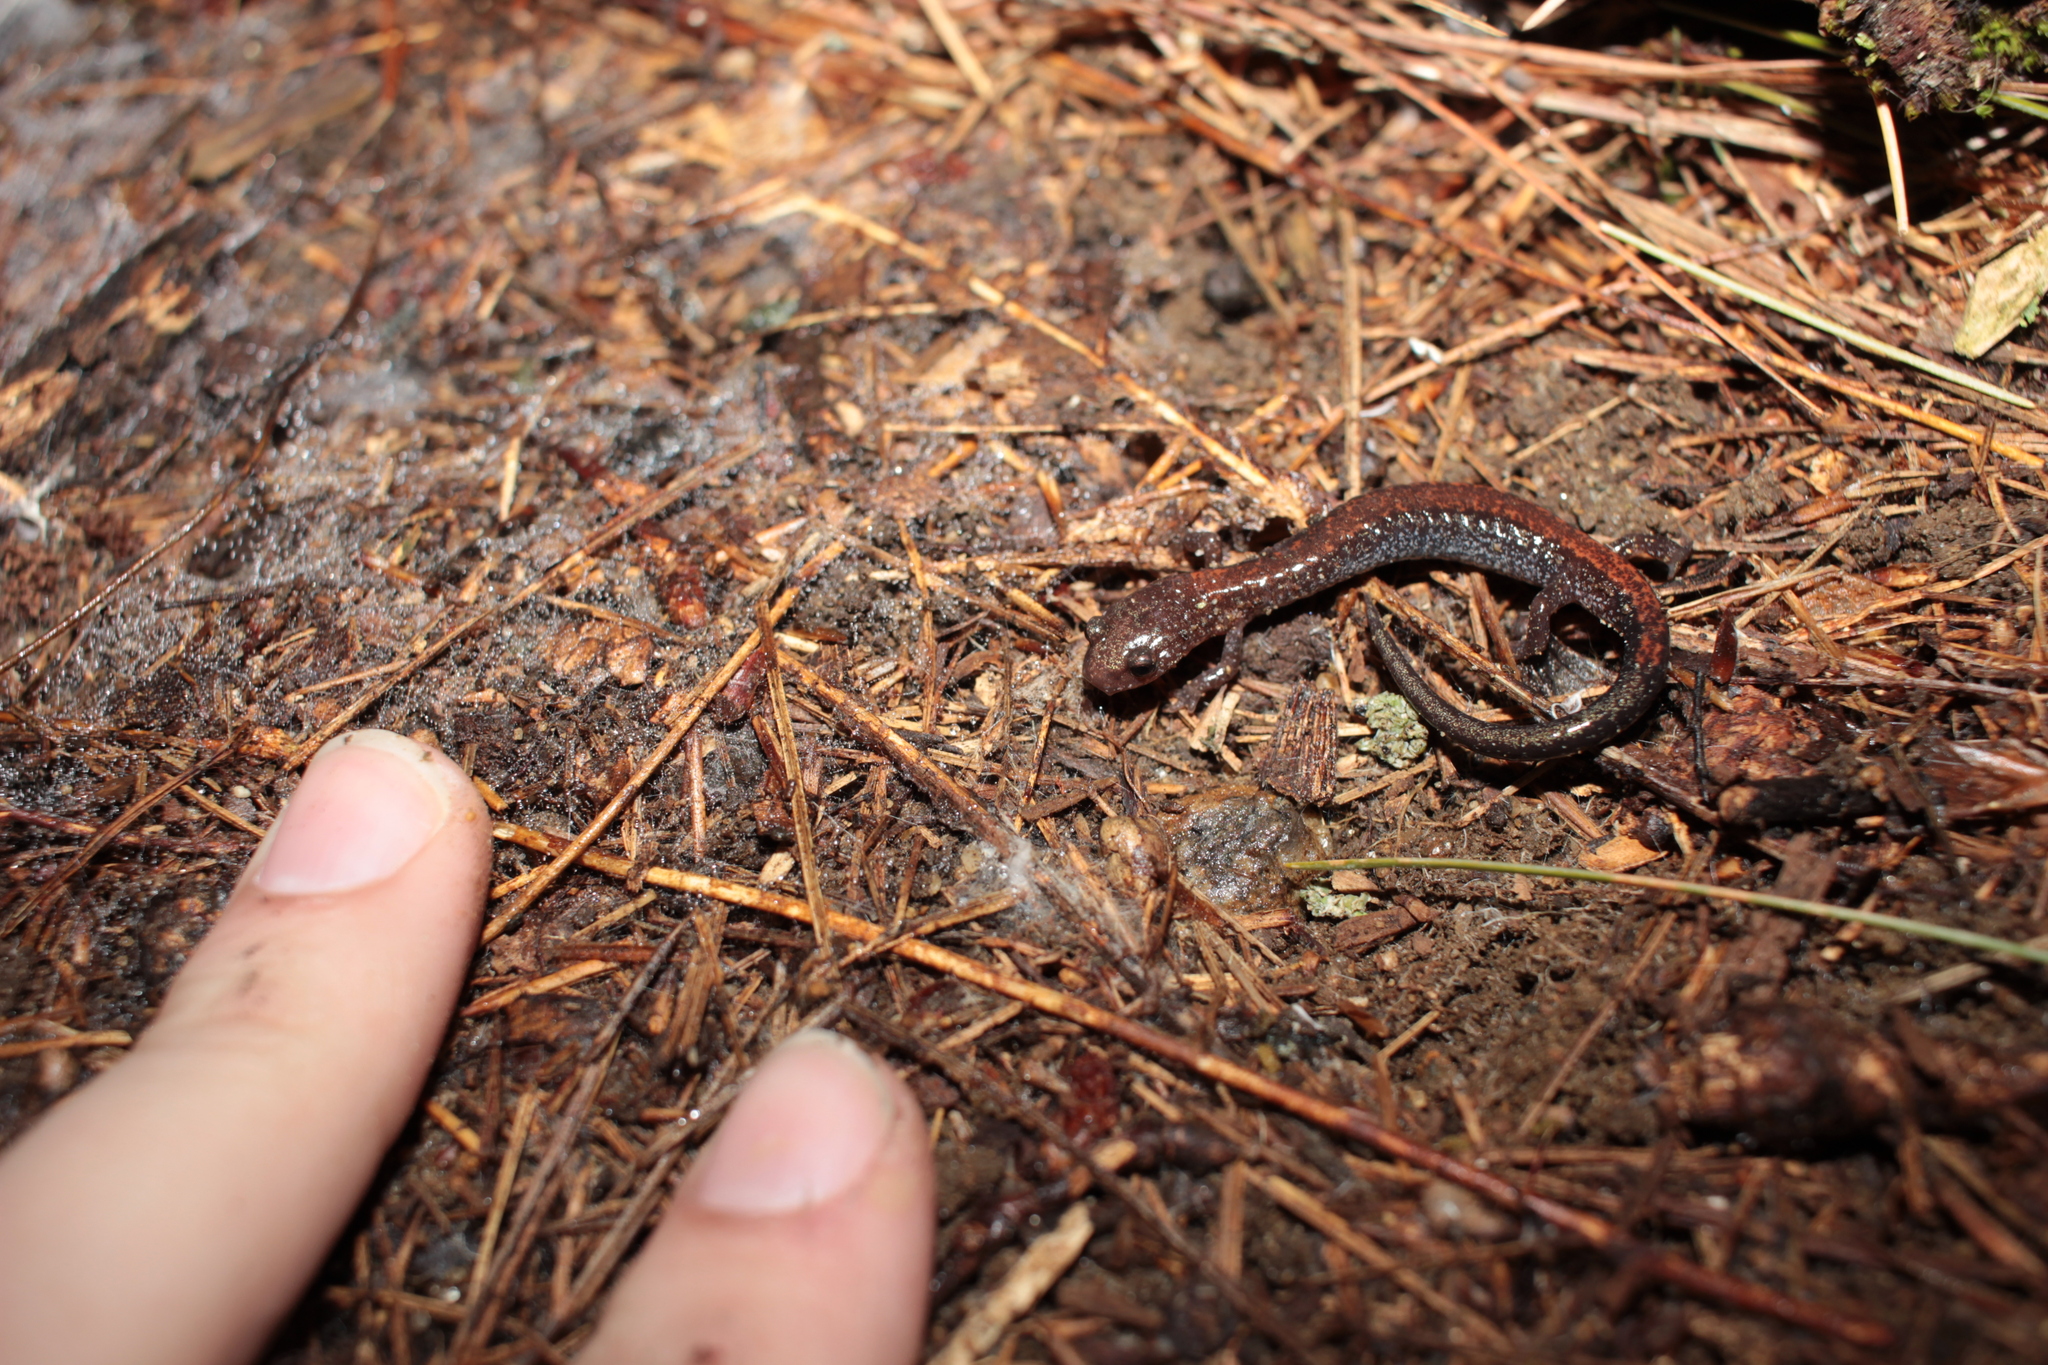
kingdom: Animalia
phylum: Chordata
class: Amphibia
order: Caudata
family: Plethodontidae
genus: Plethodon
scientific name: Plethodon cinereus
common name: Redback salamander
